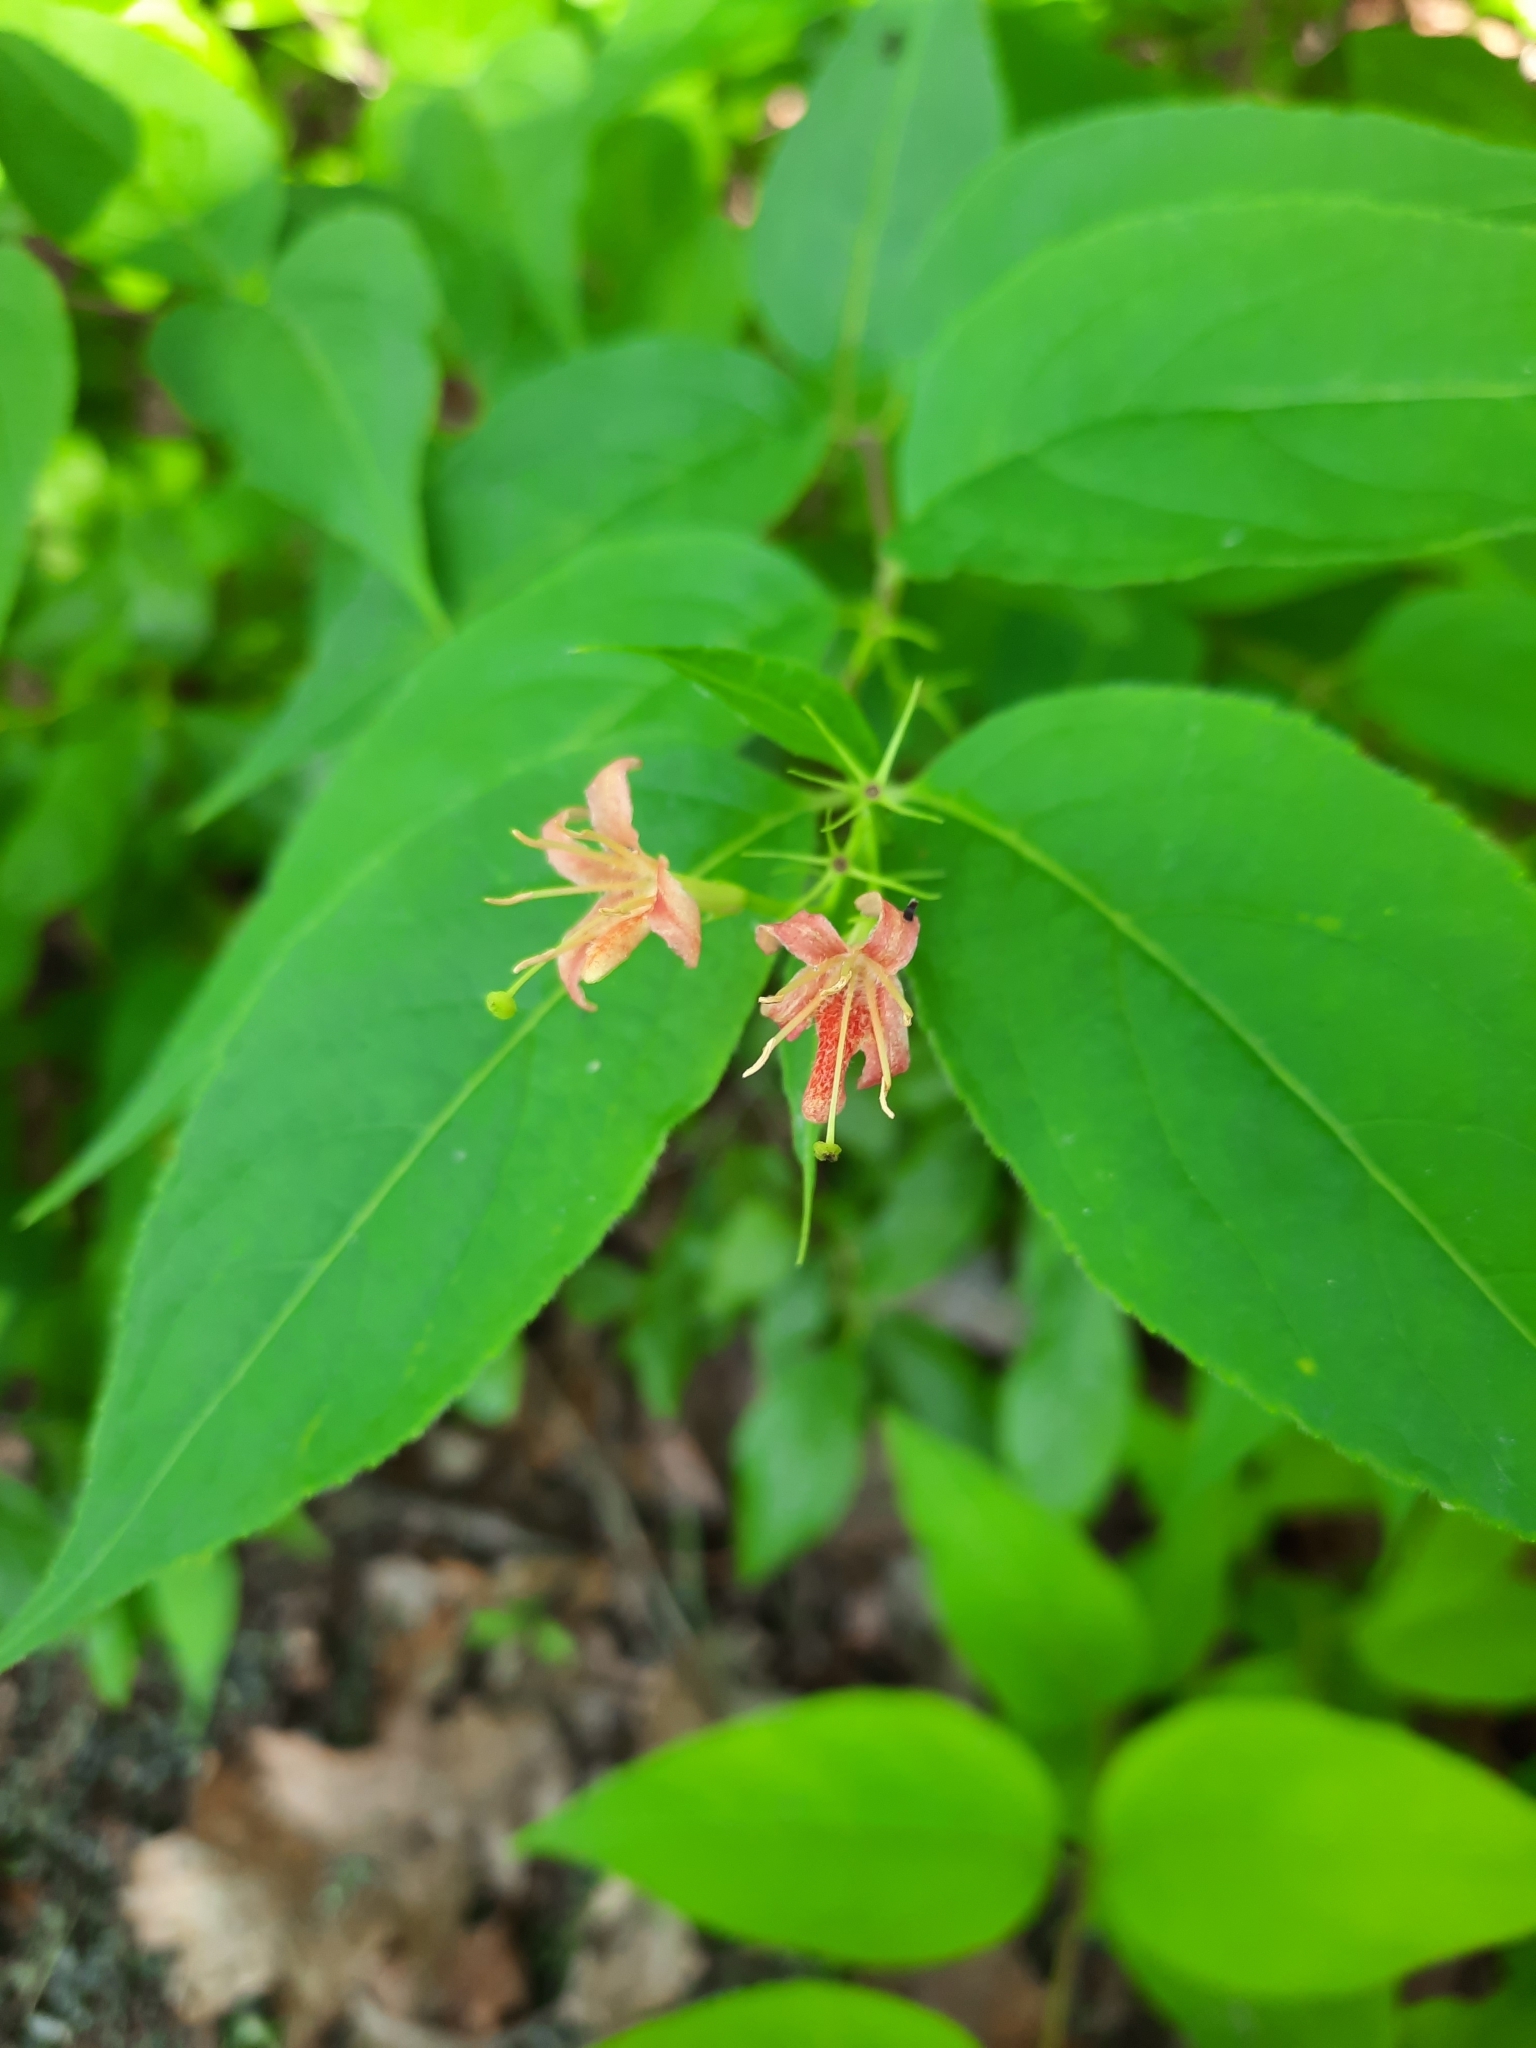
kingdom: Plantae
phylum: Tracheophyta
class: Magnoliopsida
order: Dipsacales
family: Caprifoliaceae
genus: Diervilla
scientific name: Diervilla lonicera
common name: Bush-honeysuckle
